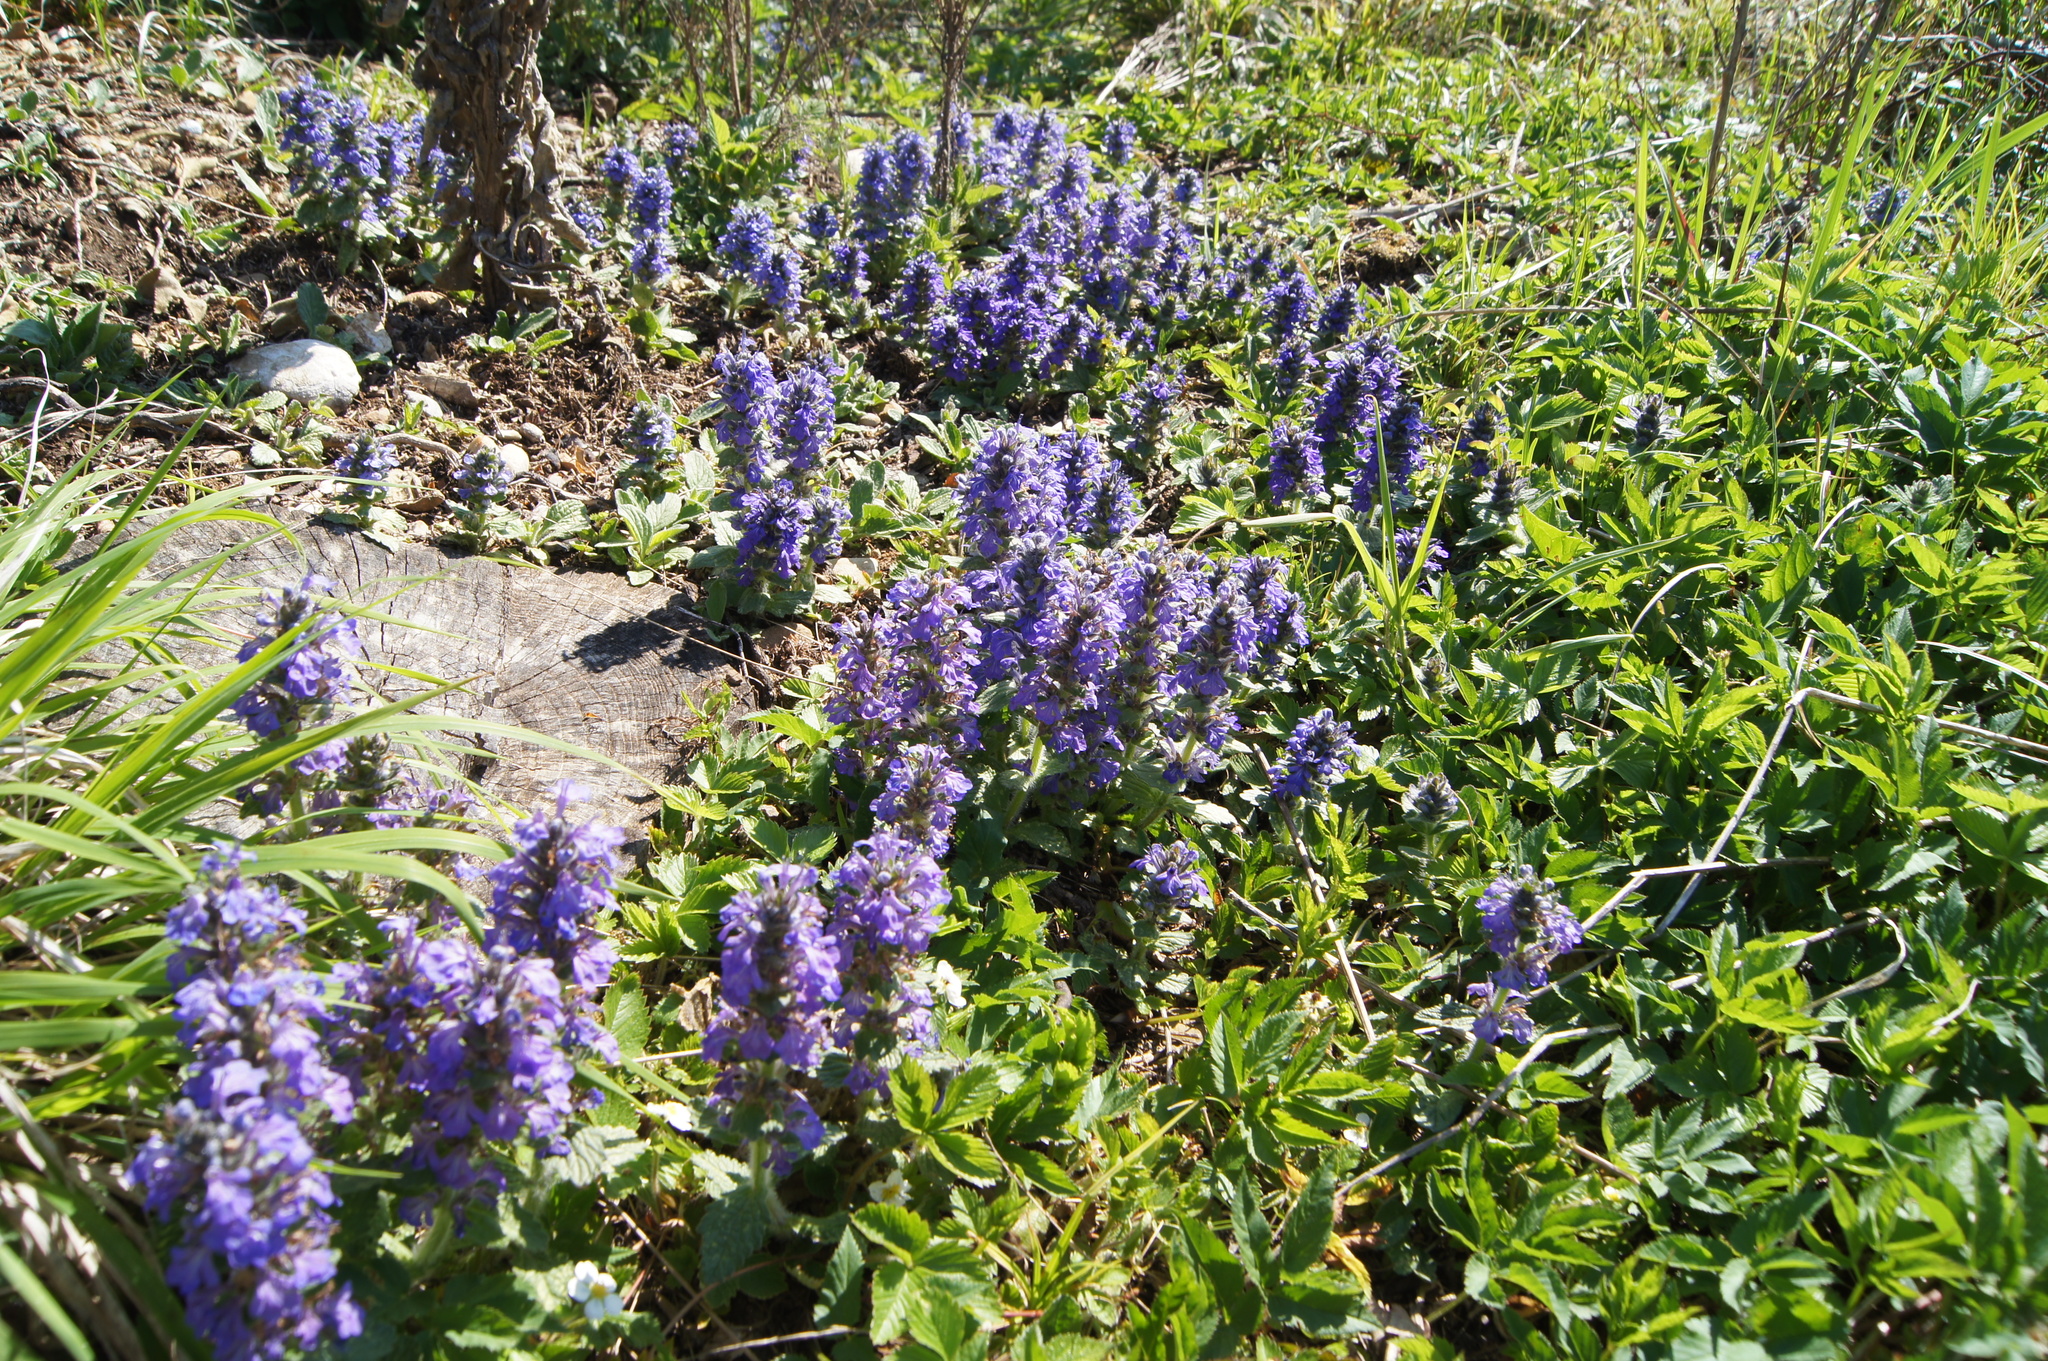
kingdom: Plantae
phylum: Tracheophyta
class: Magnoliopsida
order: Lamiales
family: Lamiaceae
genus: Ajuga
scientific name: Ajuga genevensis
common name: Blue bugle
